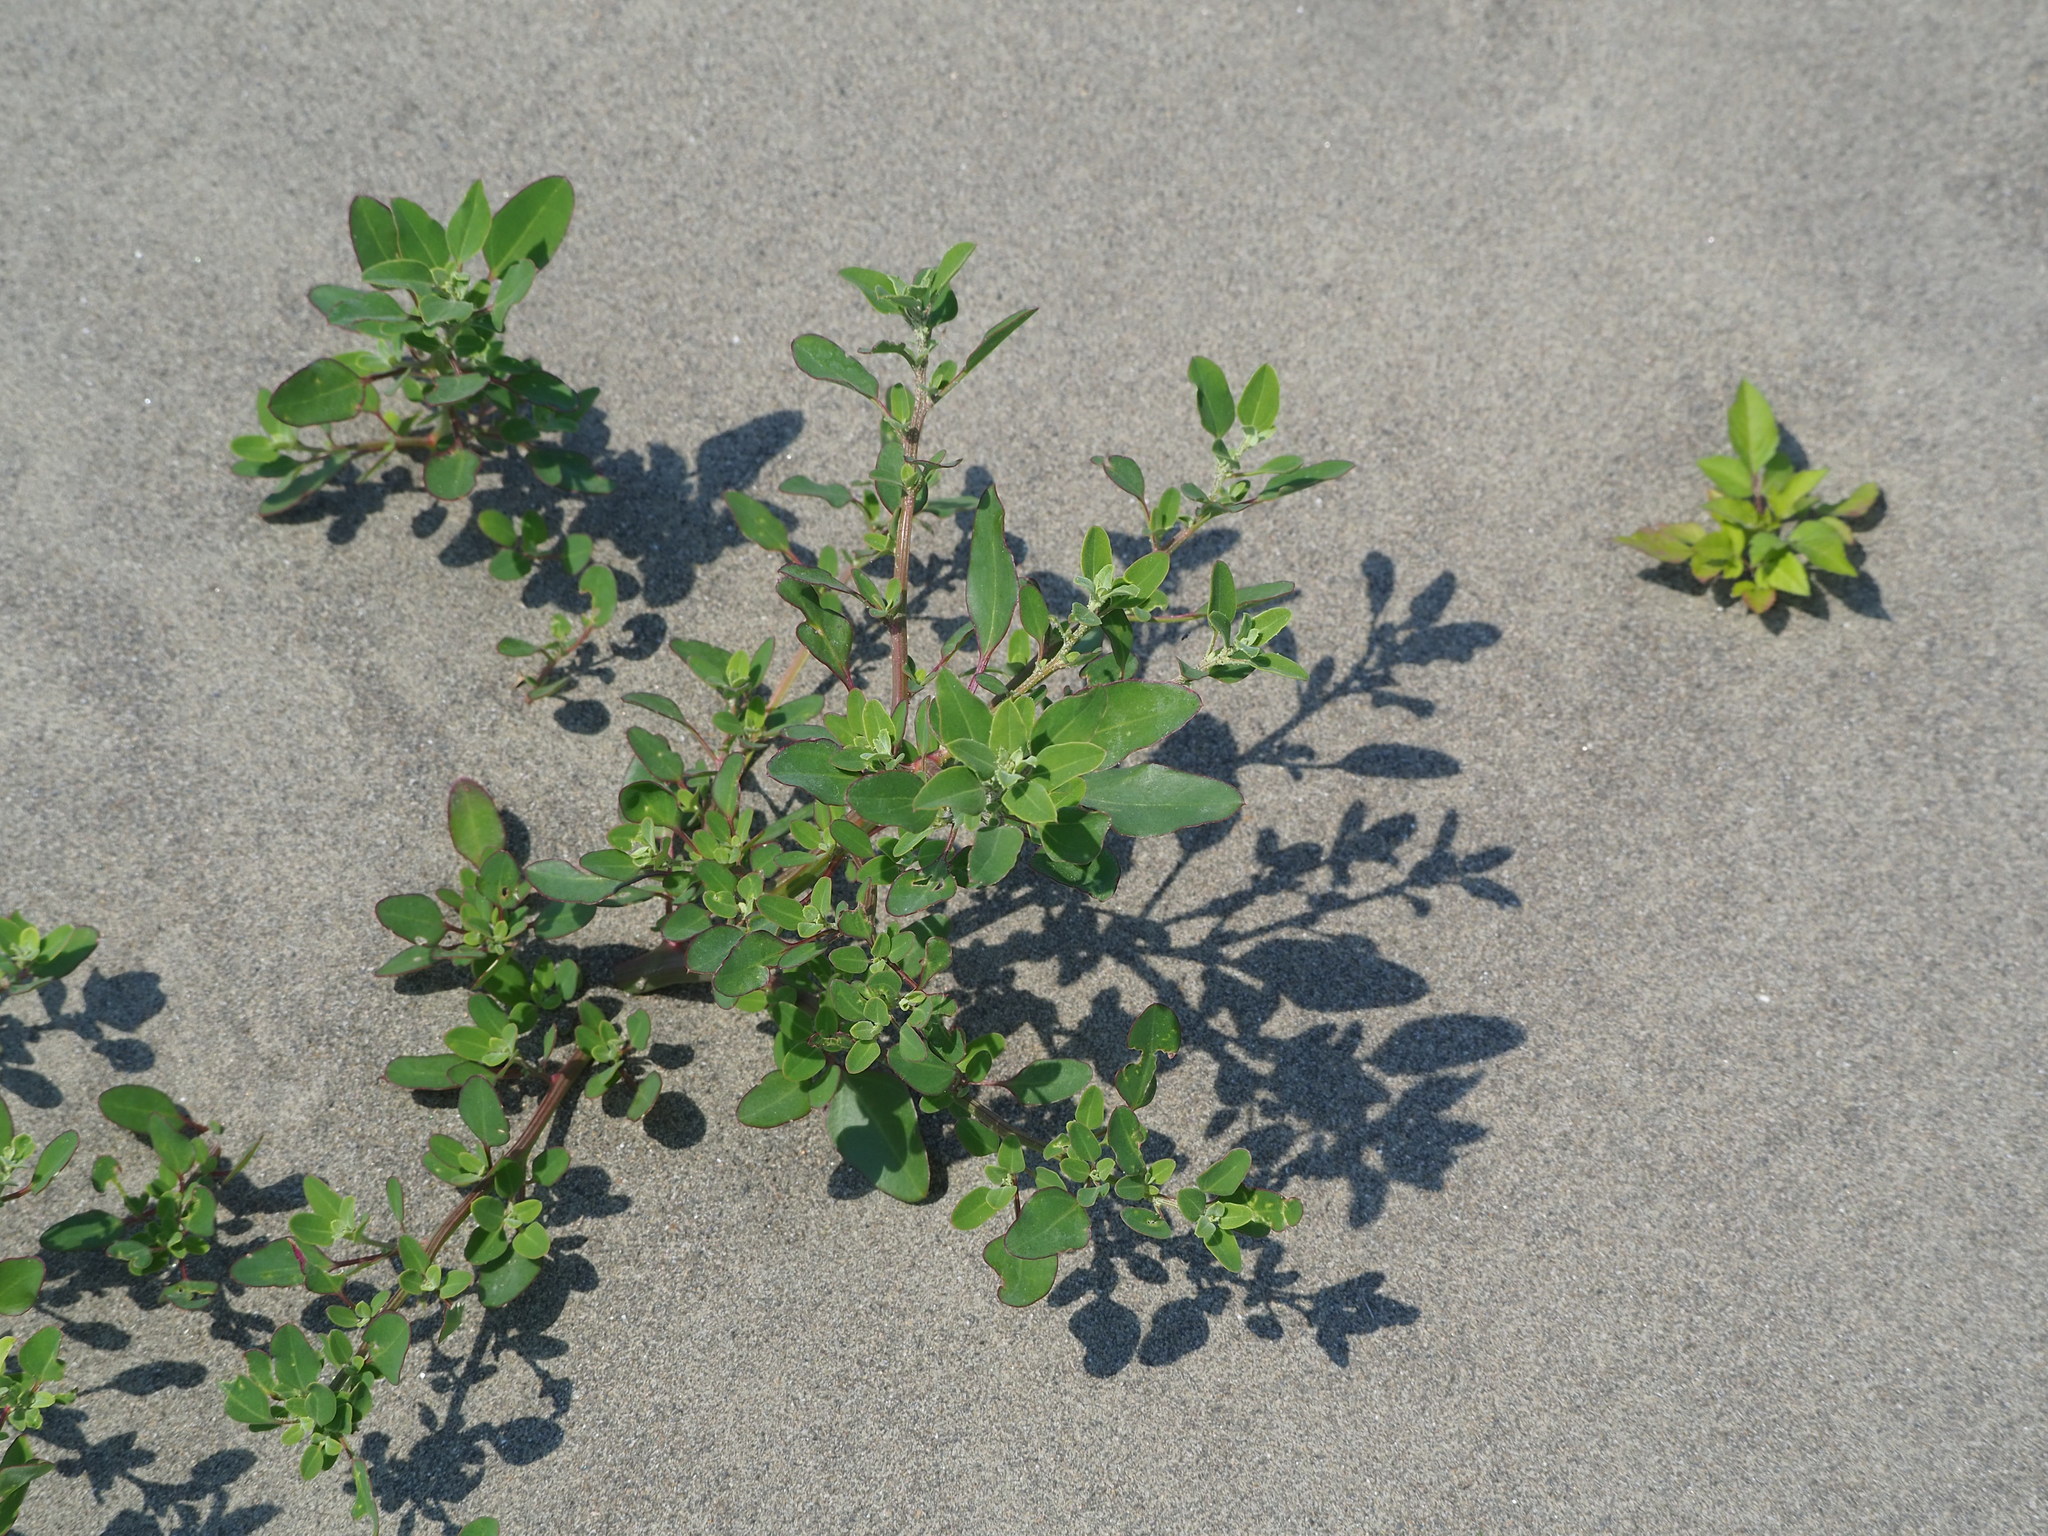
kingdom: Plantae
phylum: Tracheophyta
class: Magnoliopsida
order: Caryophyllales
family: Amaranthaceae
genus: Chenopodium
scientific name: Chenopodium acuminatum
